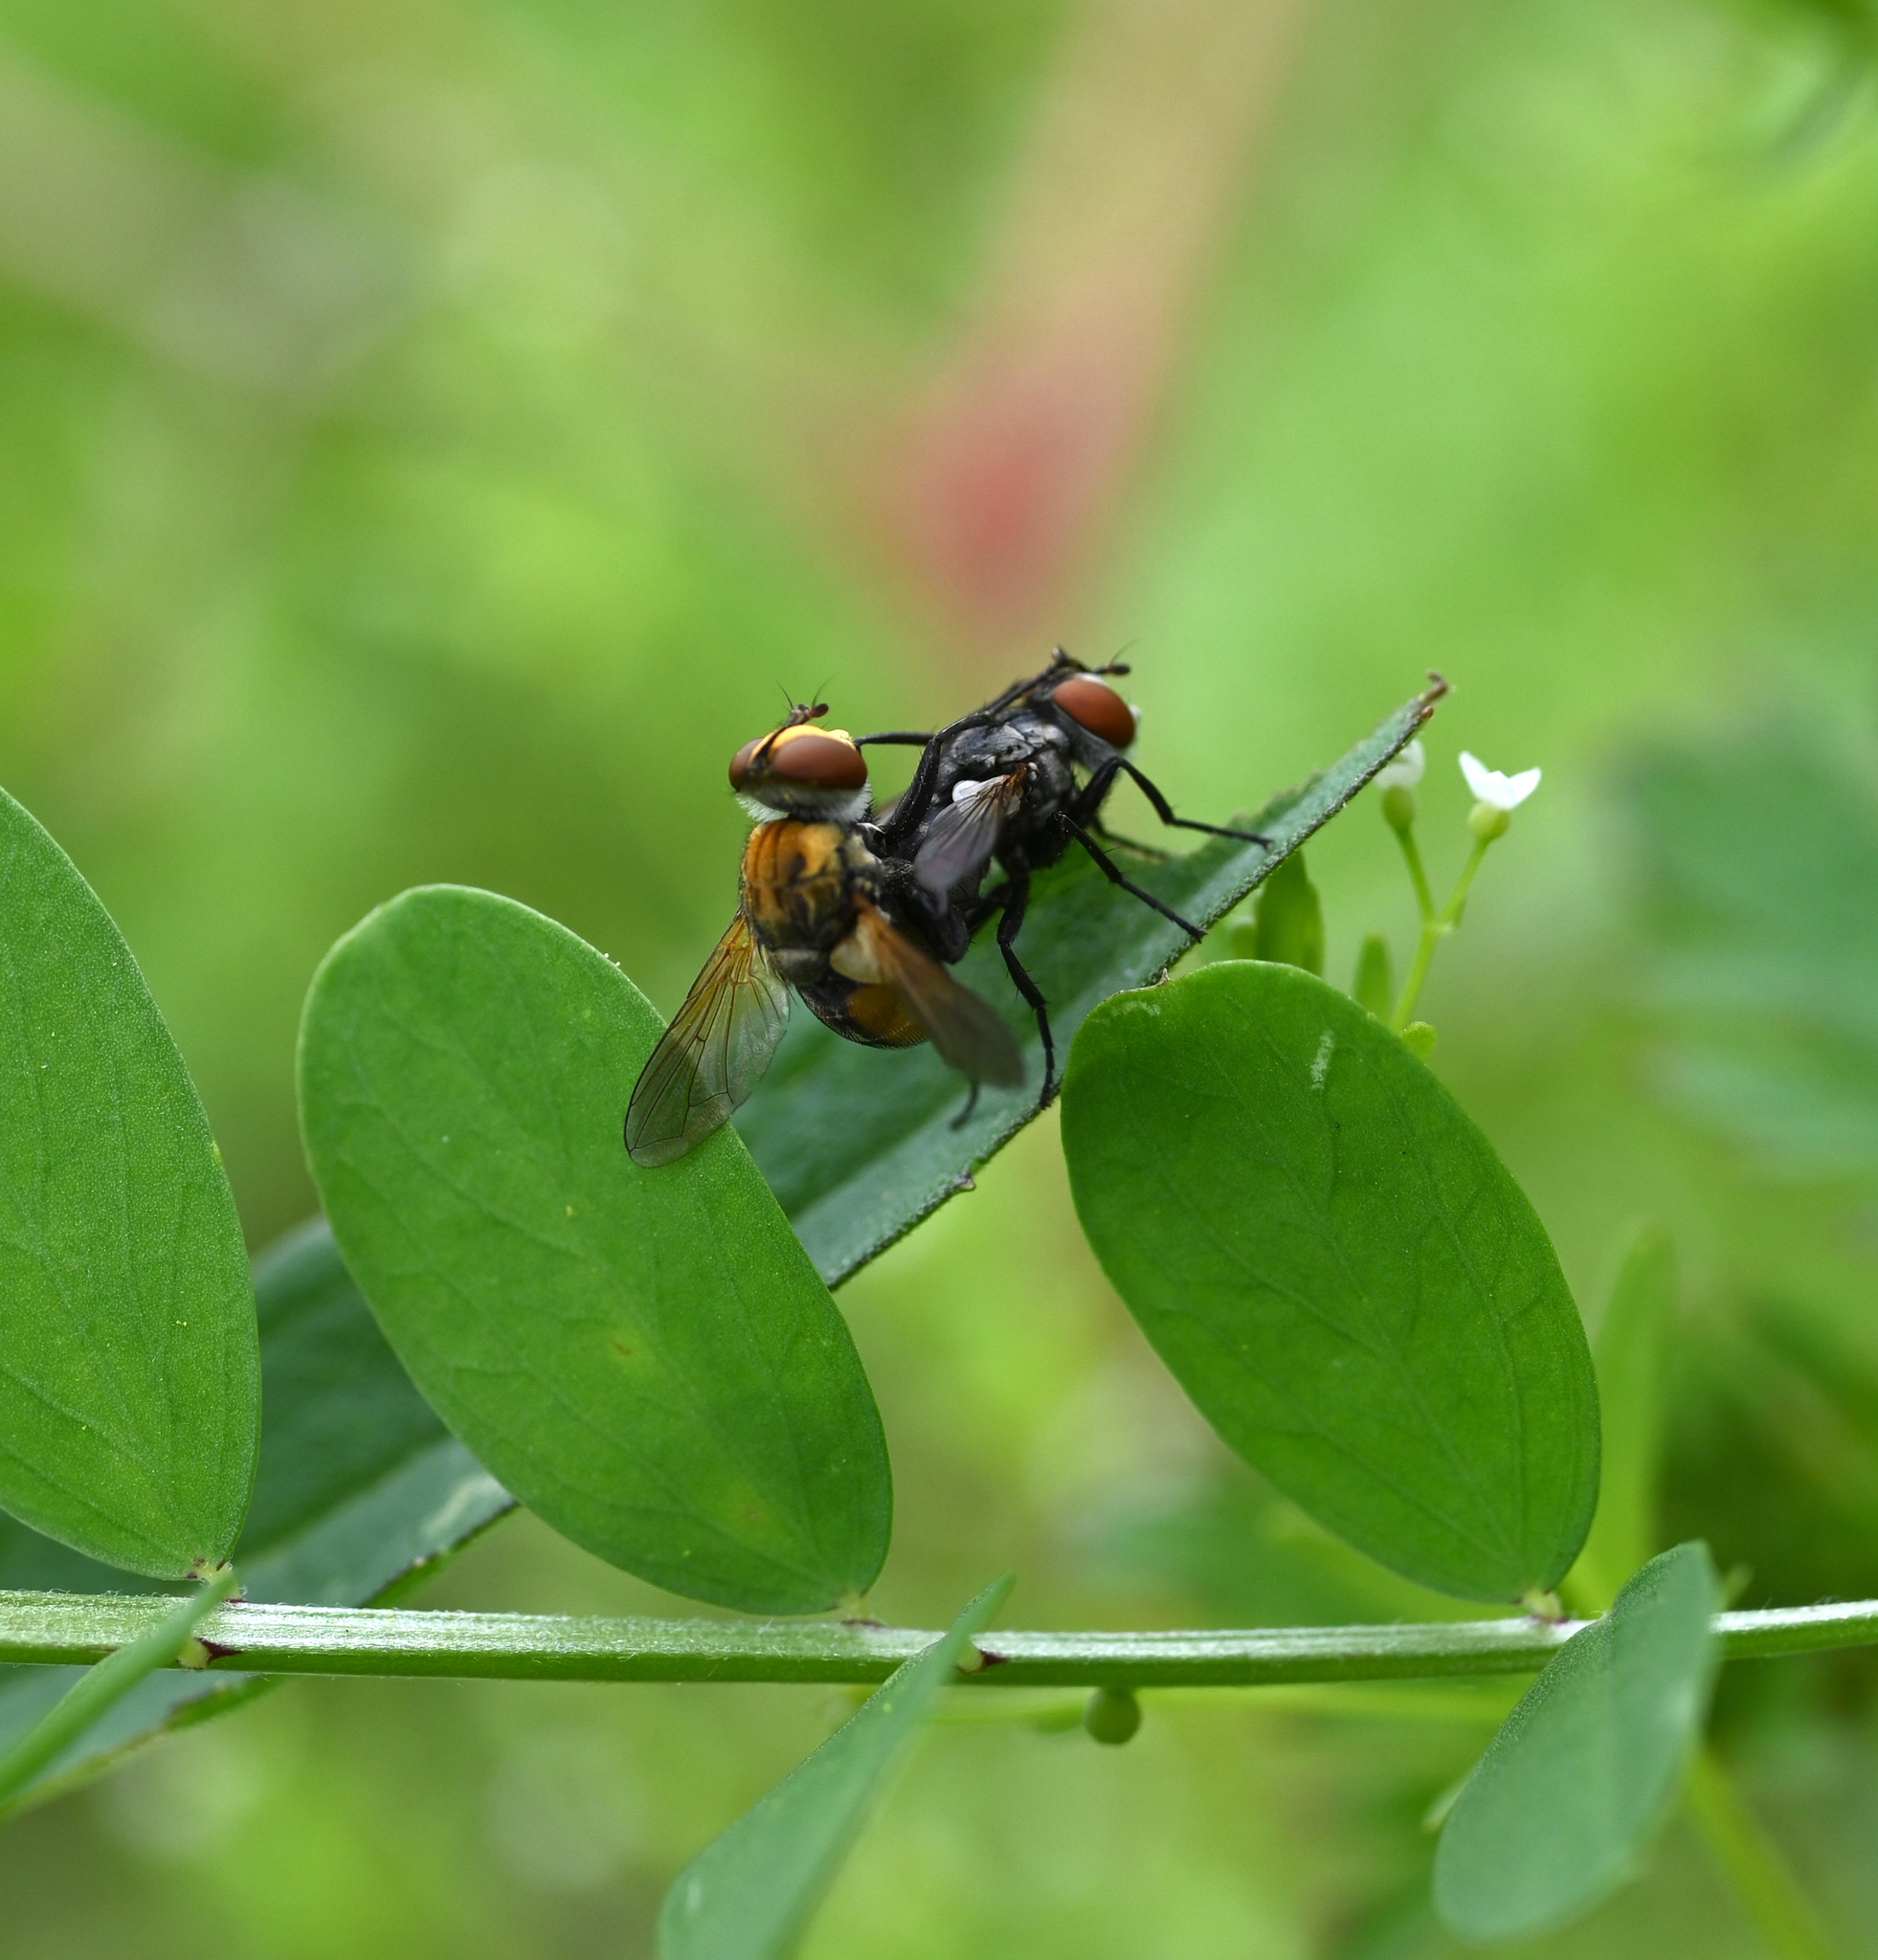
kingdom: Animalia
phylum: Arthropoda
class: Insecta
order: Diptera
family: Tachinidae
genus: Gymnoclytia
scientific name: Gymnoclytia occidua
